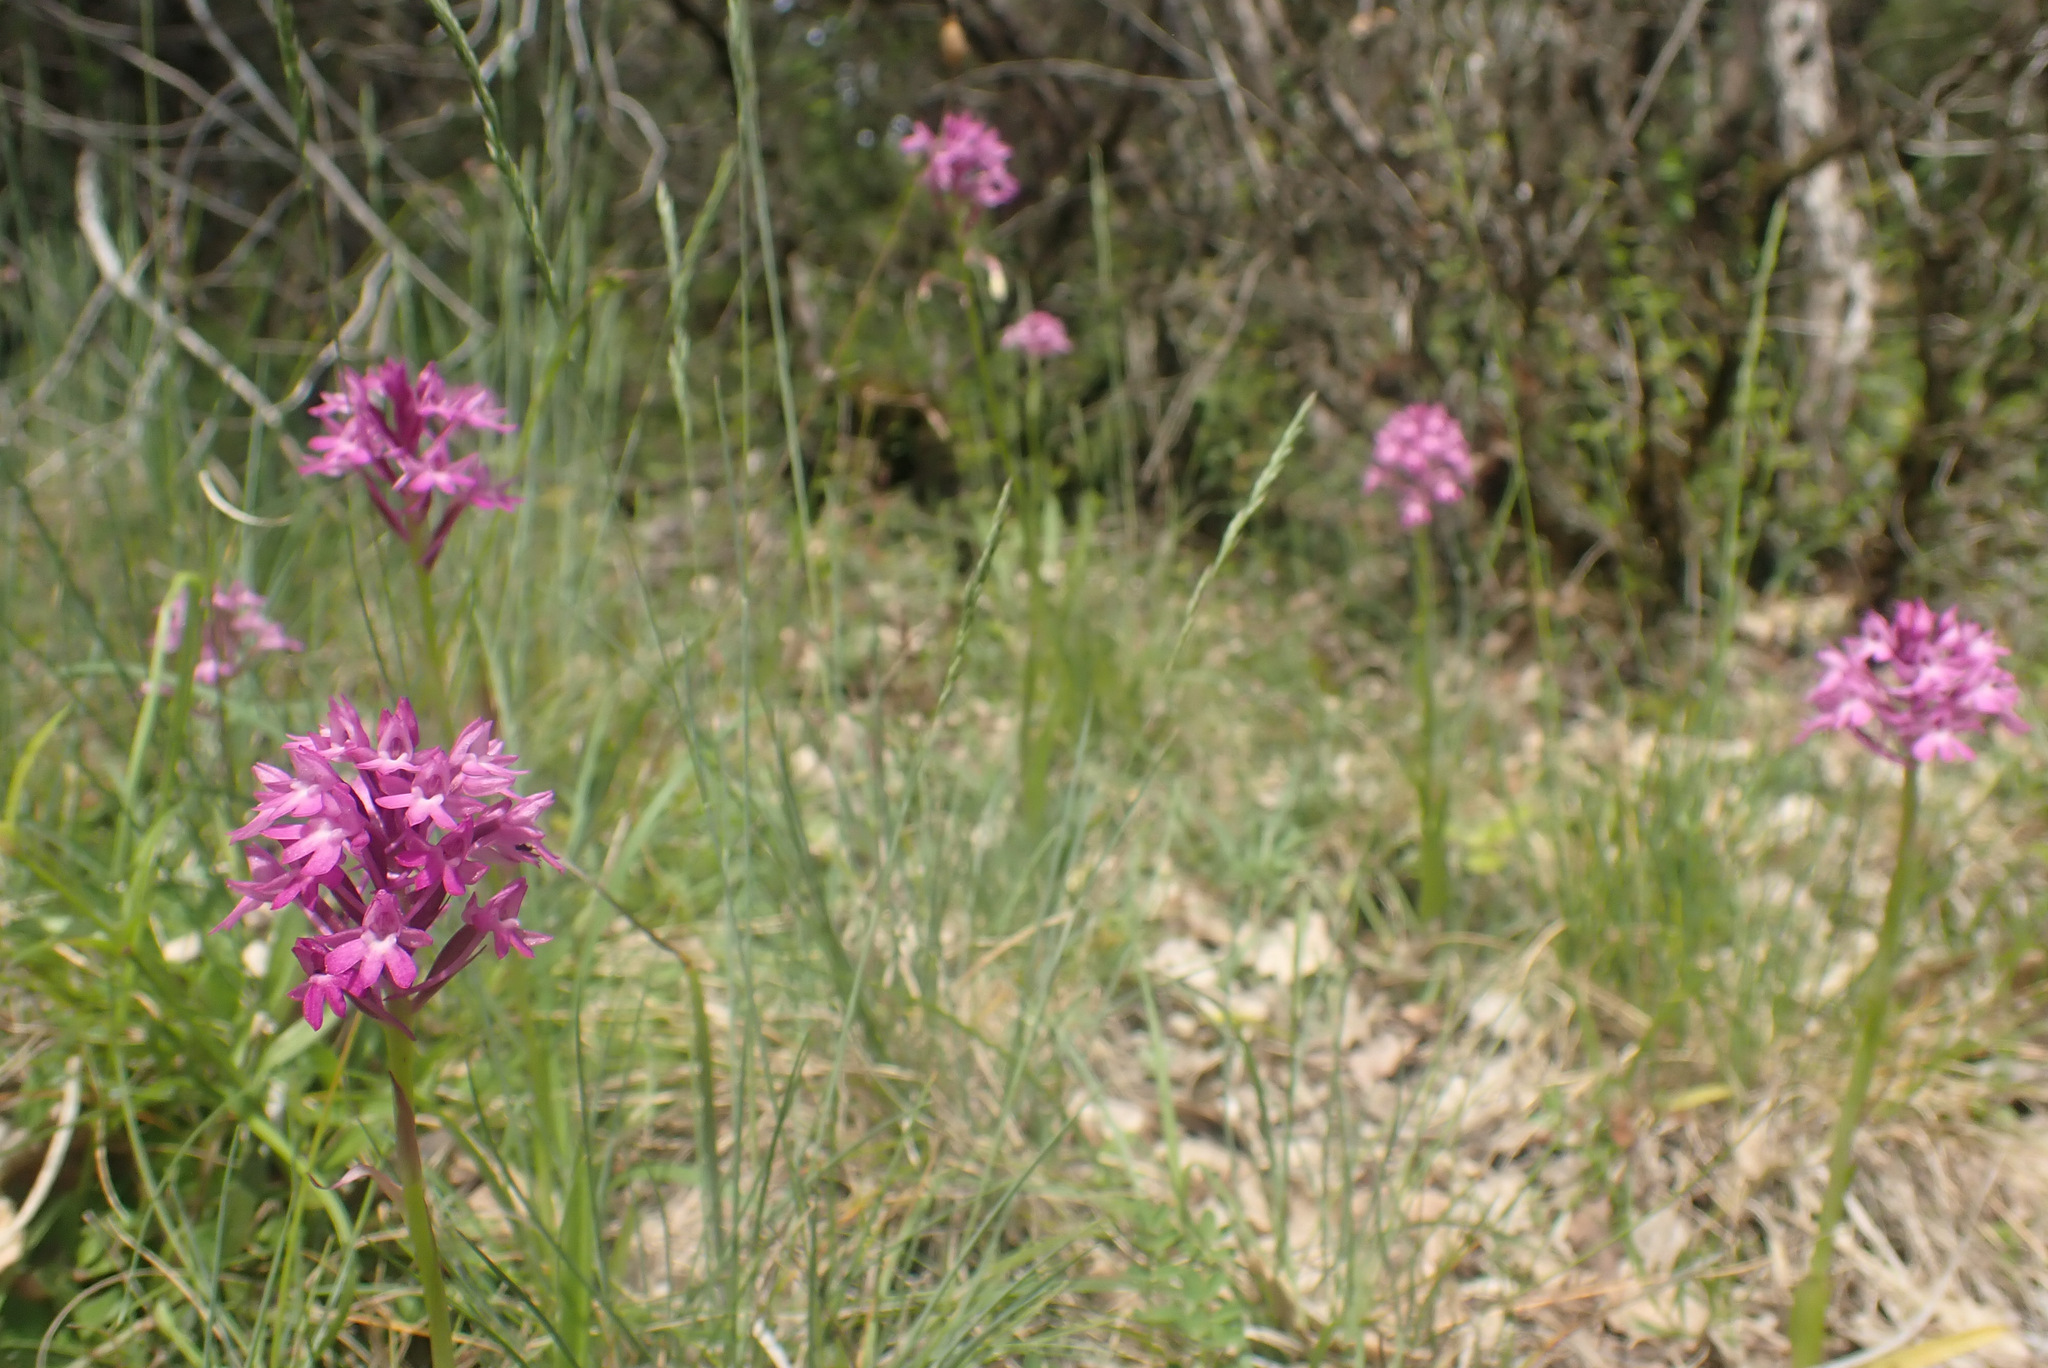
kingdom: Plantae
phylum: Tracheophyta
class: Liliopsida
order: Asparagales
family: Orchidaceae
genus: Anacamptis
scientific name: Anacamptis pyramidalis
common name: Pyramidal orchid
